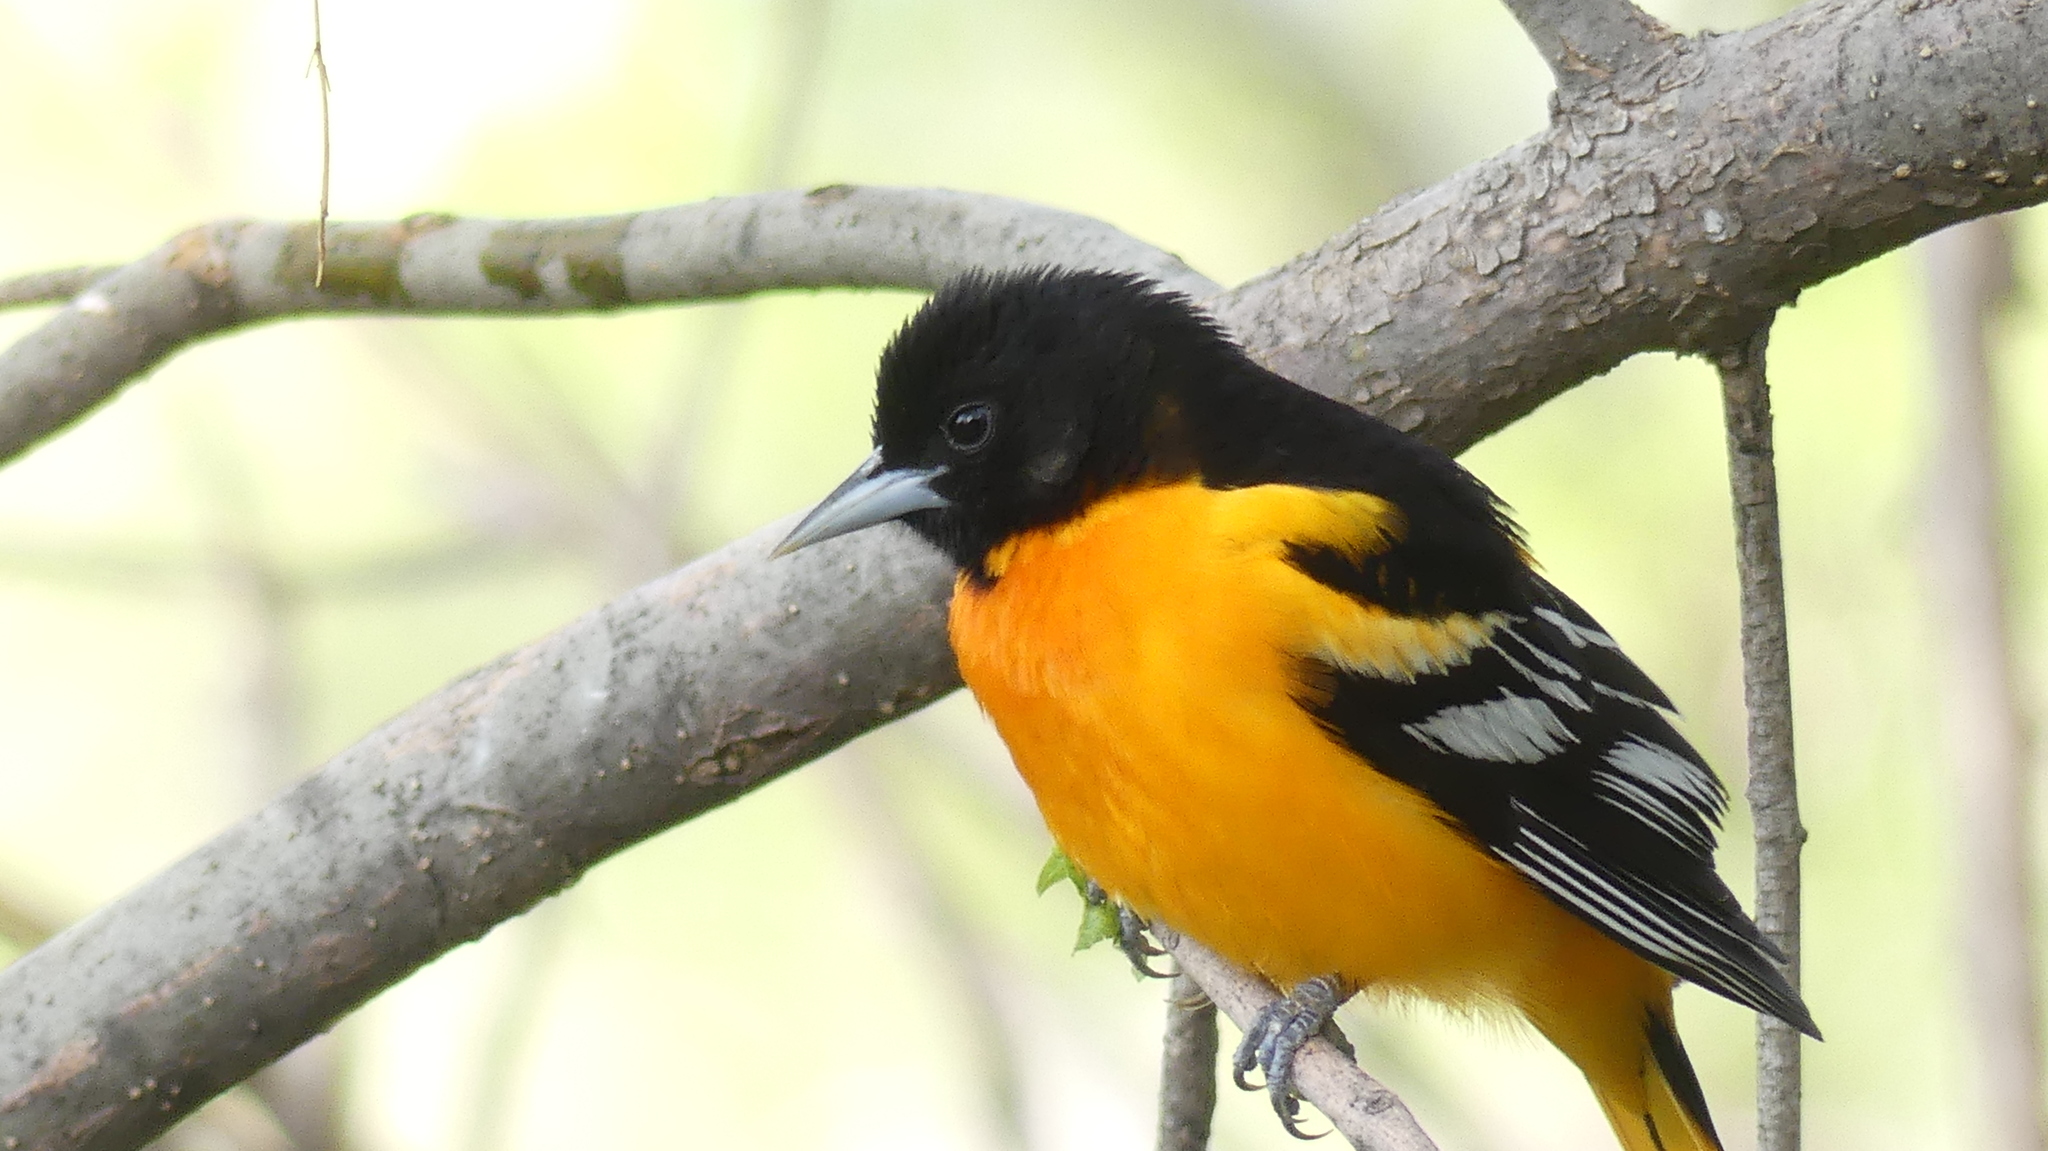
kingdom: Animalia
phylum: Chordata
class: Aves
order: Passeriformes
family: Icteridae
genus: Icterus
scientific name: Icterus galbula
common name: Baltimore oriole
